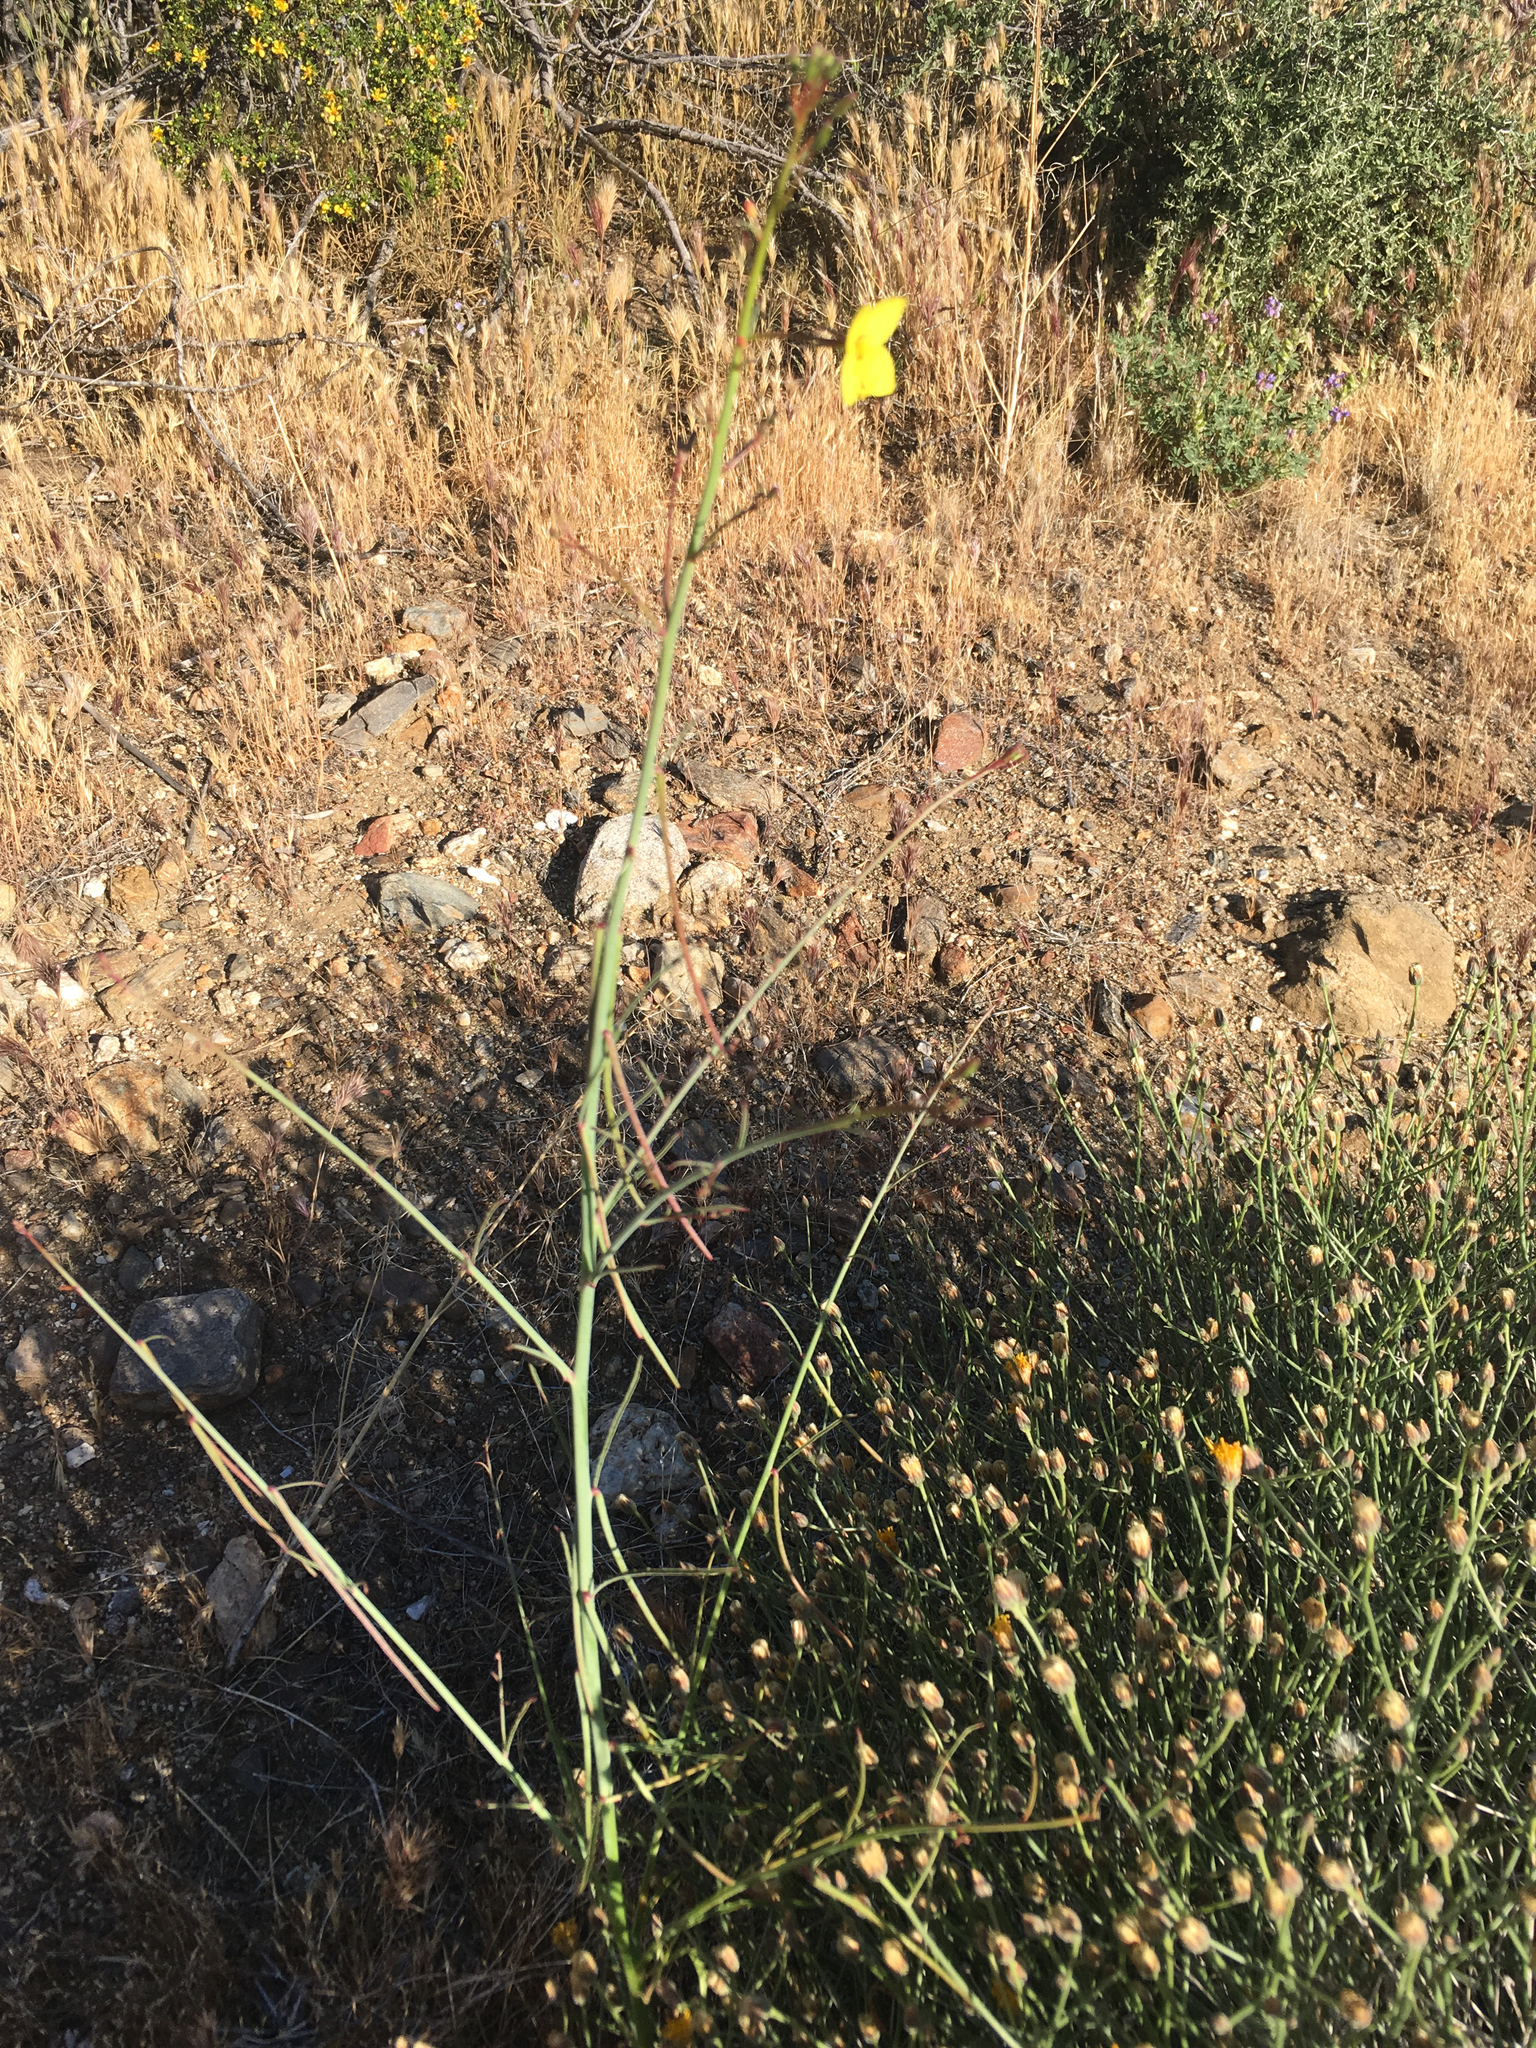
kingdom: Plantae
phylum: Tracheophyta
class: Magnoliopsida
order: Myrtales
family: Onagraceae
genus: Eulobus
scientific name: Eulobus californicus
